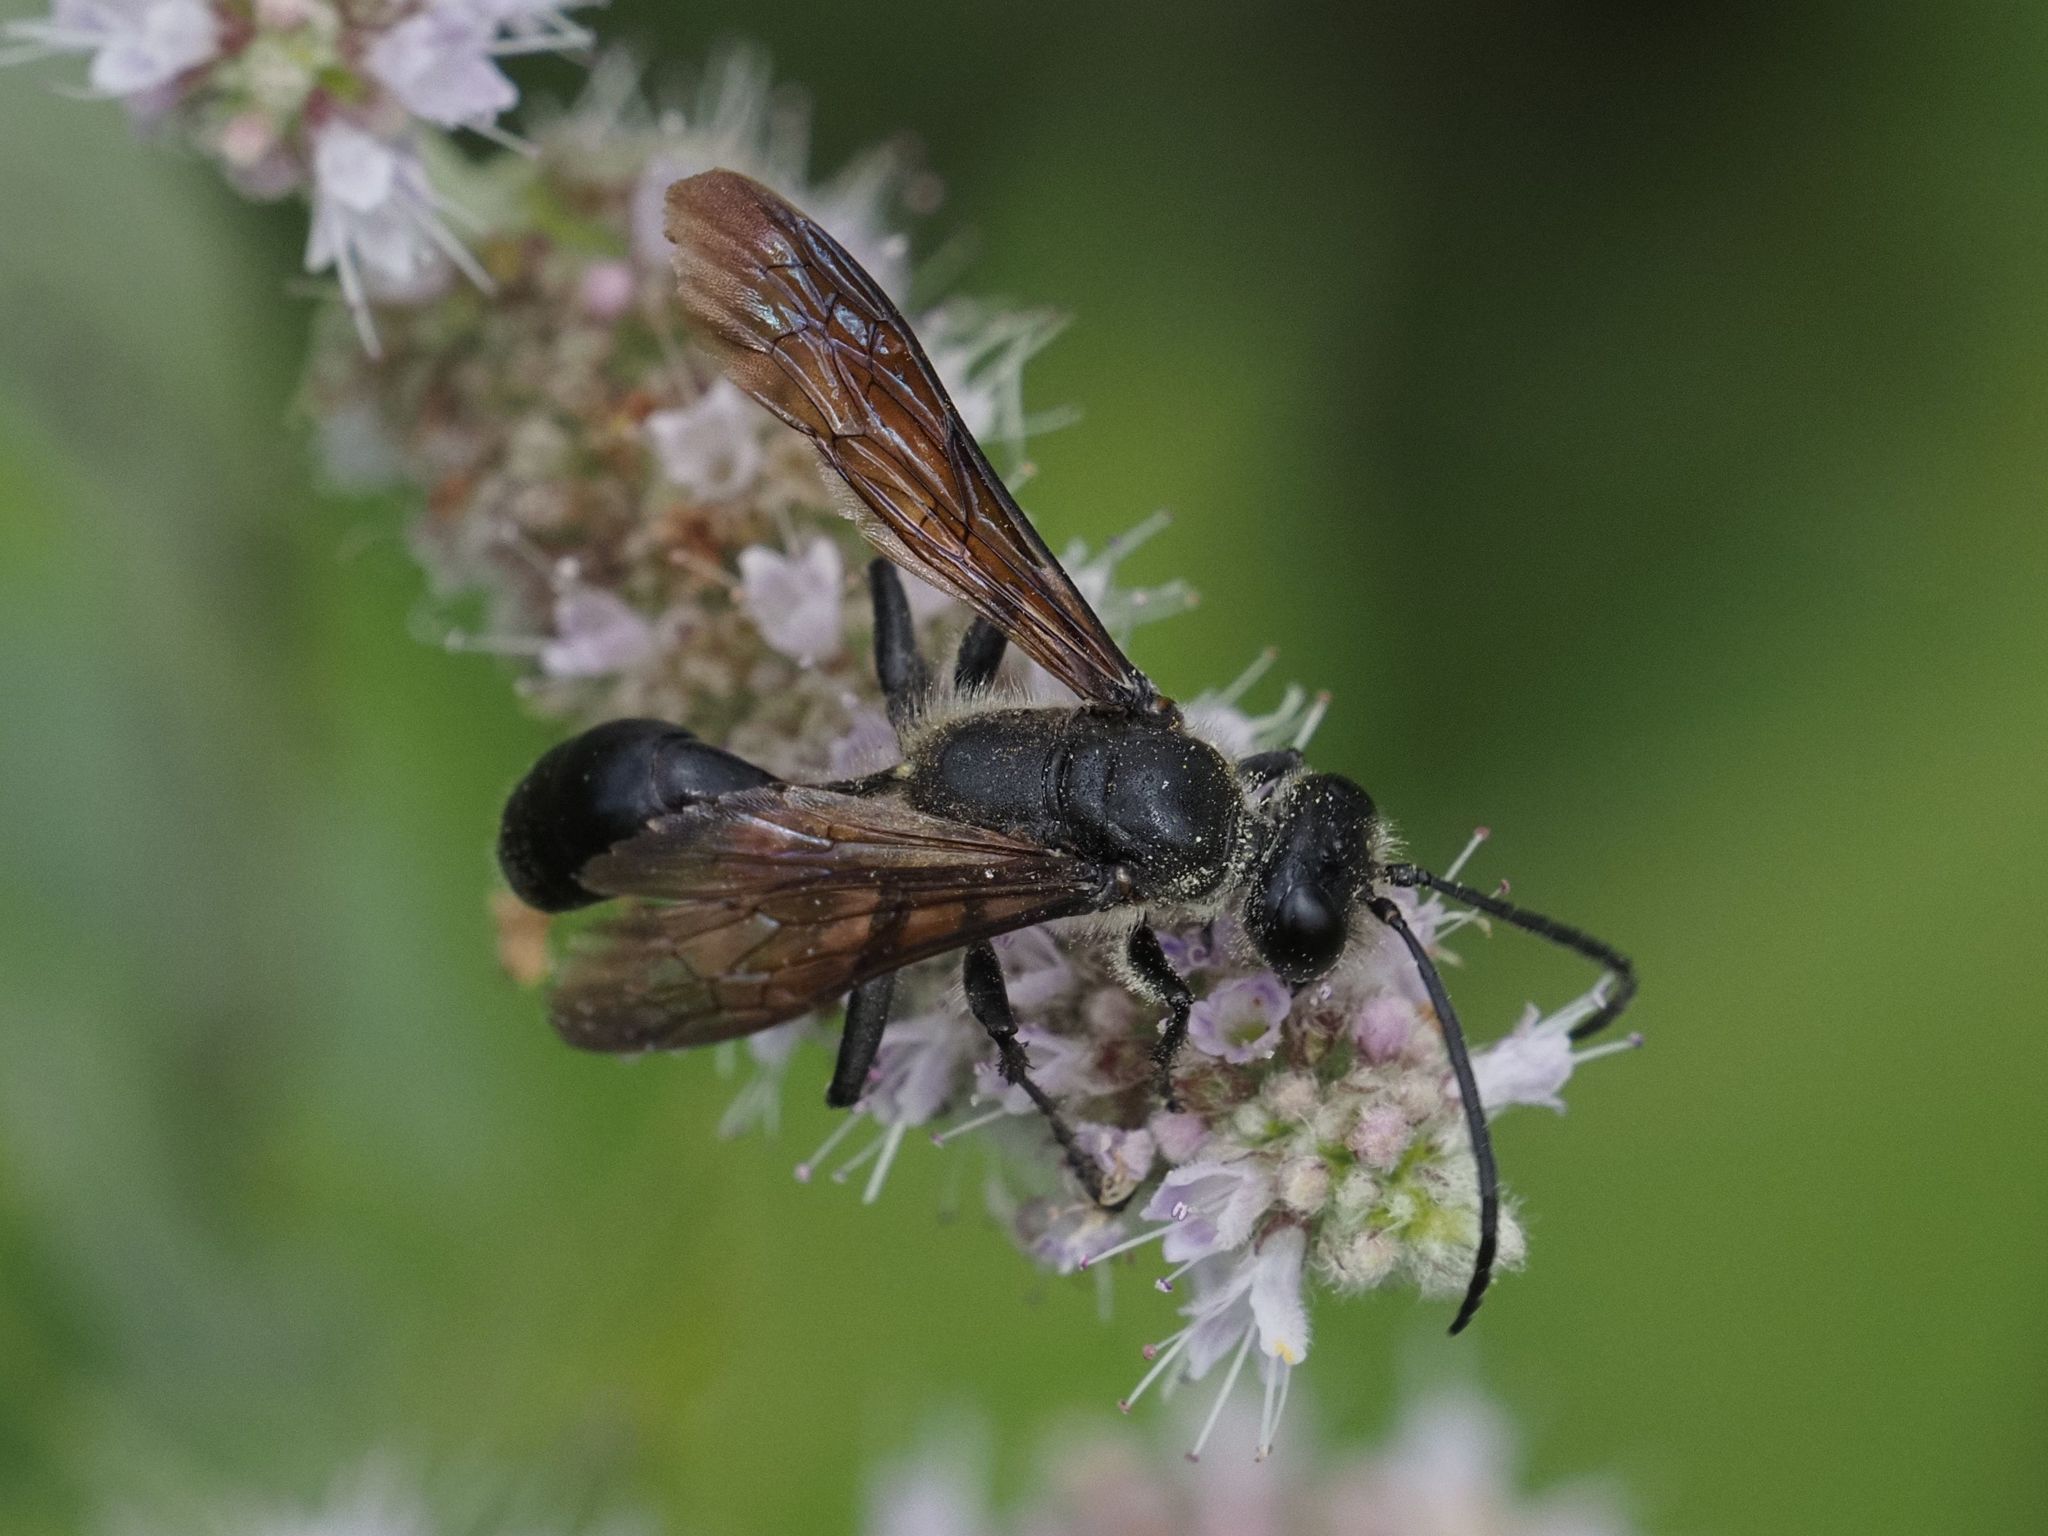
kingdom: Animalia
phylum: Arthropoda
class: Insecta
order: Hymenoptera
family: Sphecidae
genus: Isodontia
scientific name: Isodontia mexicana
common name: Mud dauber
